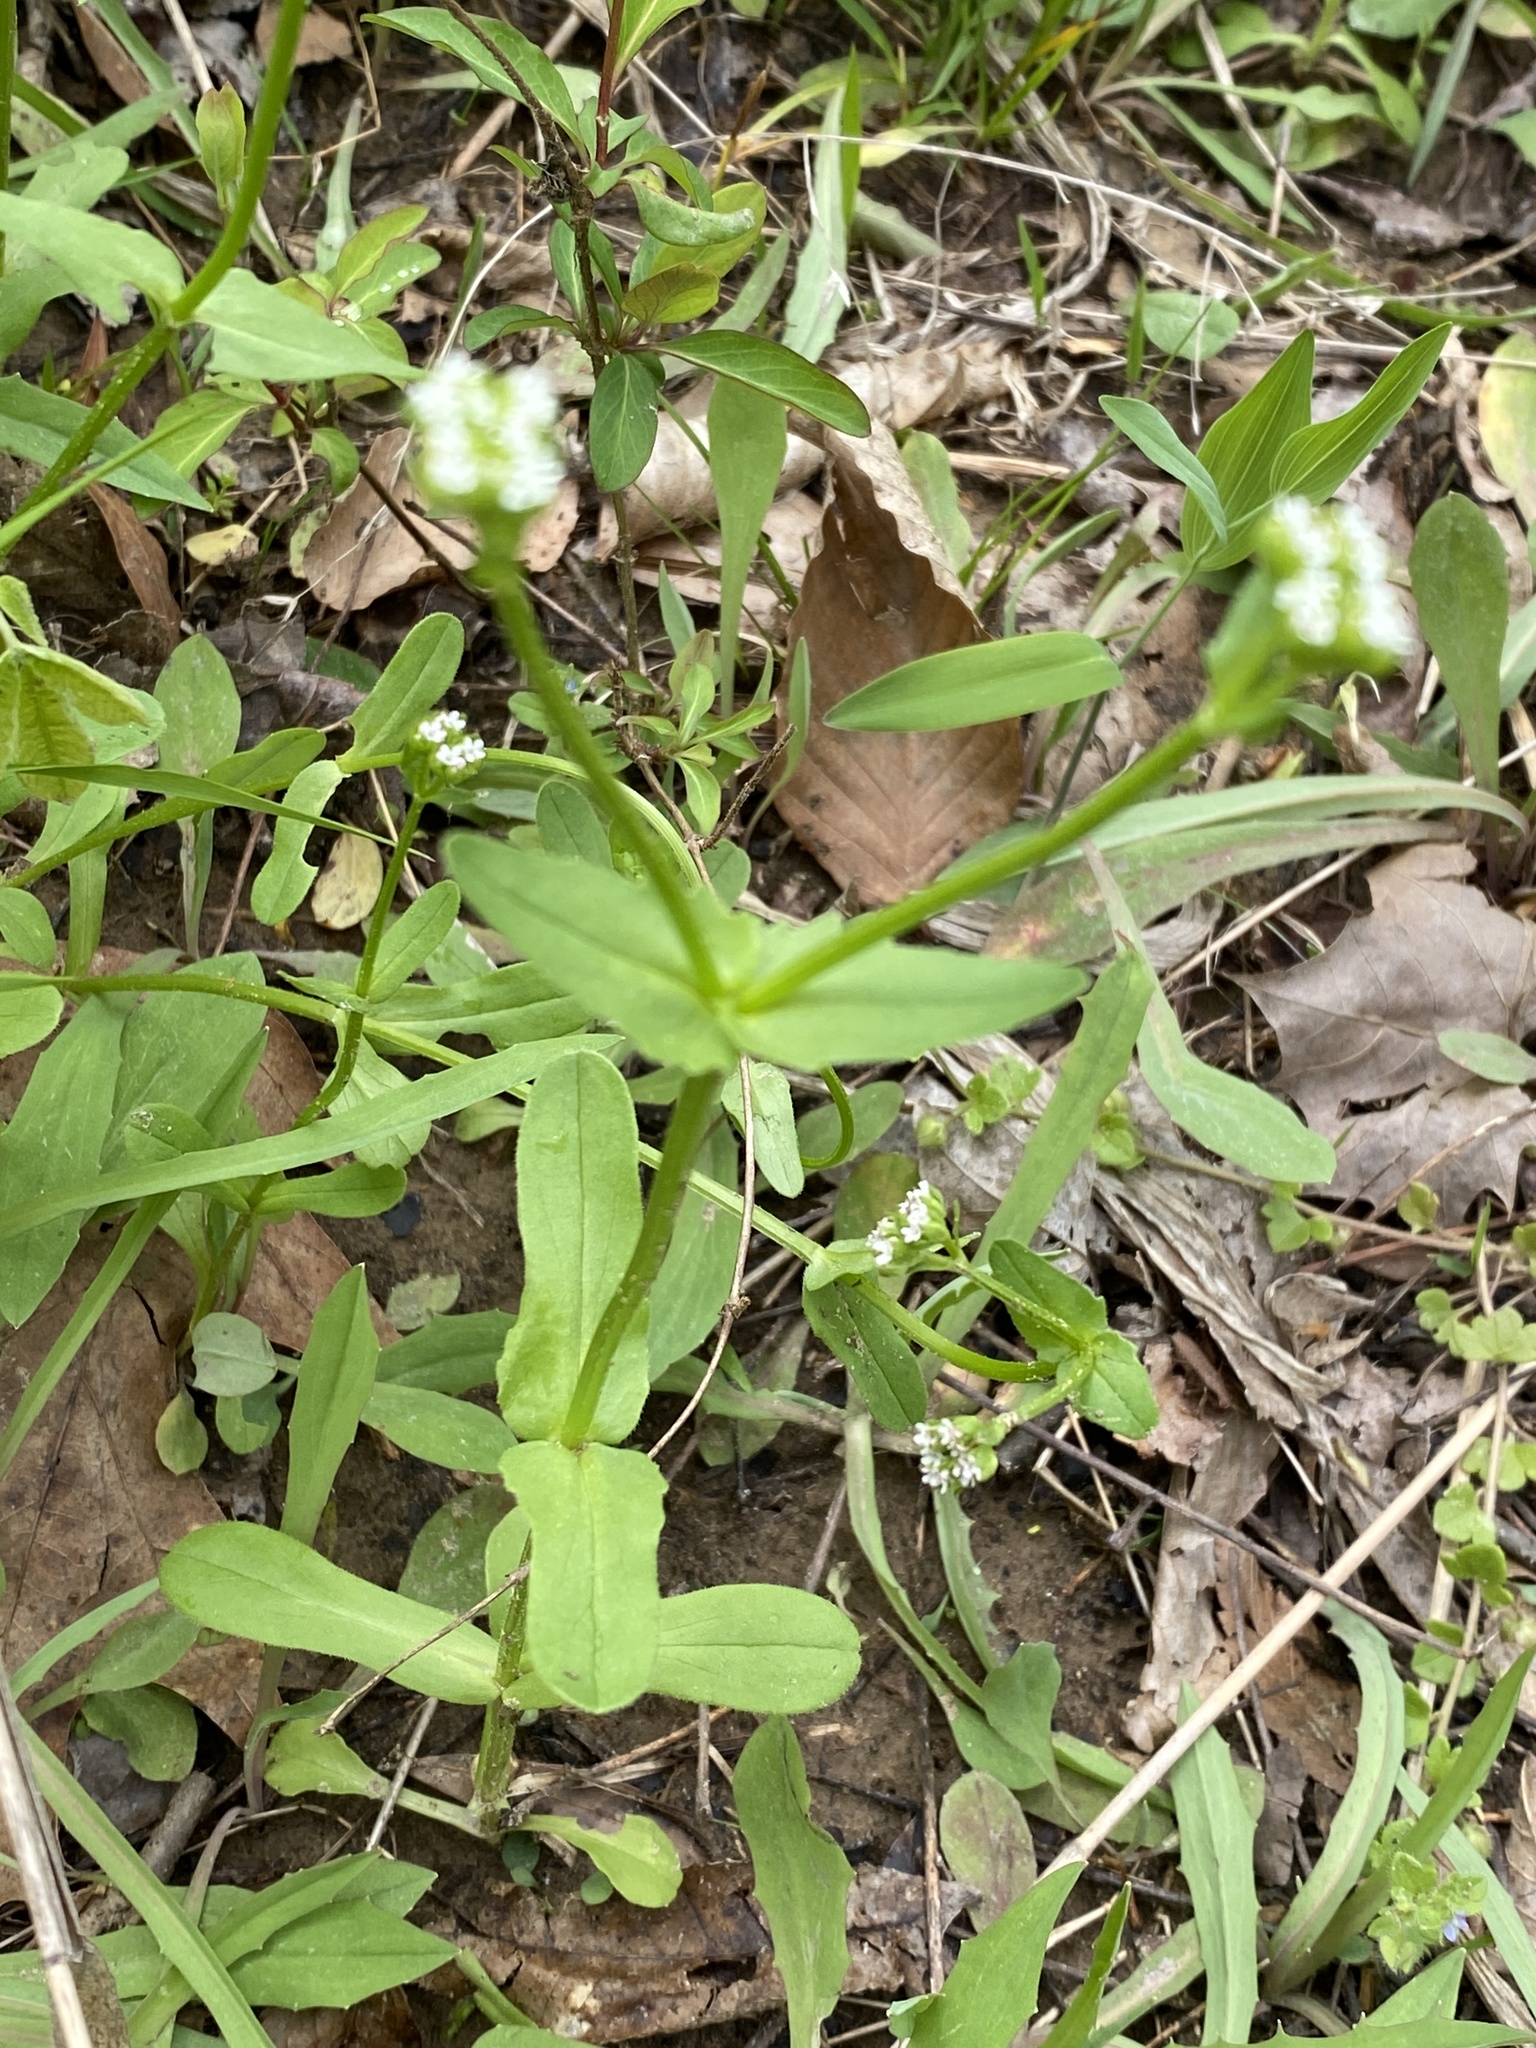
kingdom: Plantae
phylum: Tracheophyta
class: Magnoliopsida
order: Dipsacales
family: Caprifoliaceae
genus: Valerianella
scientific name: Valerianella radiata
